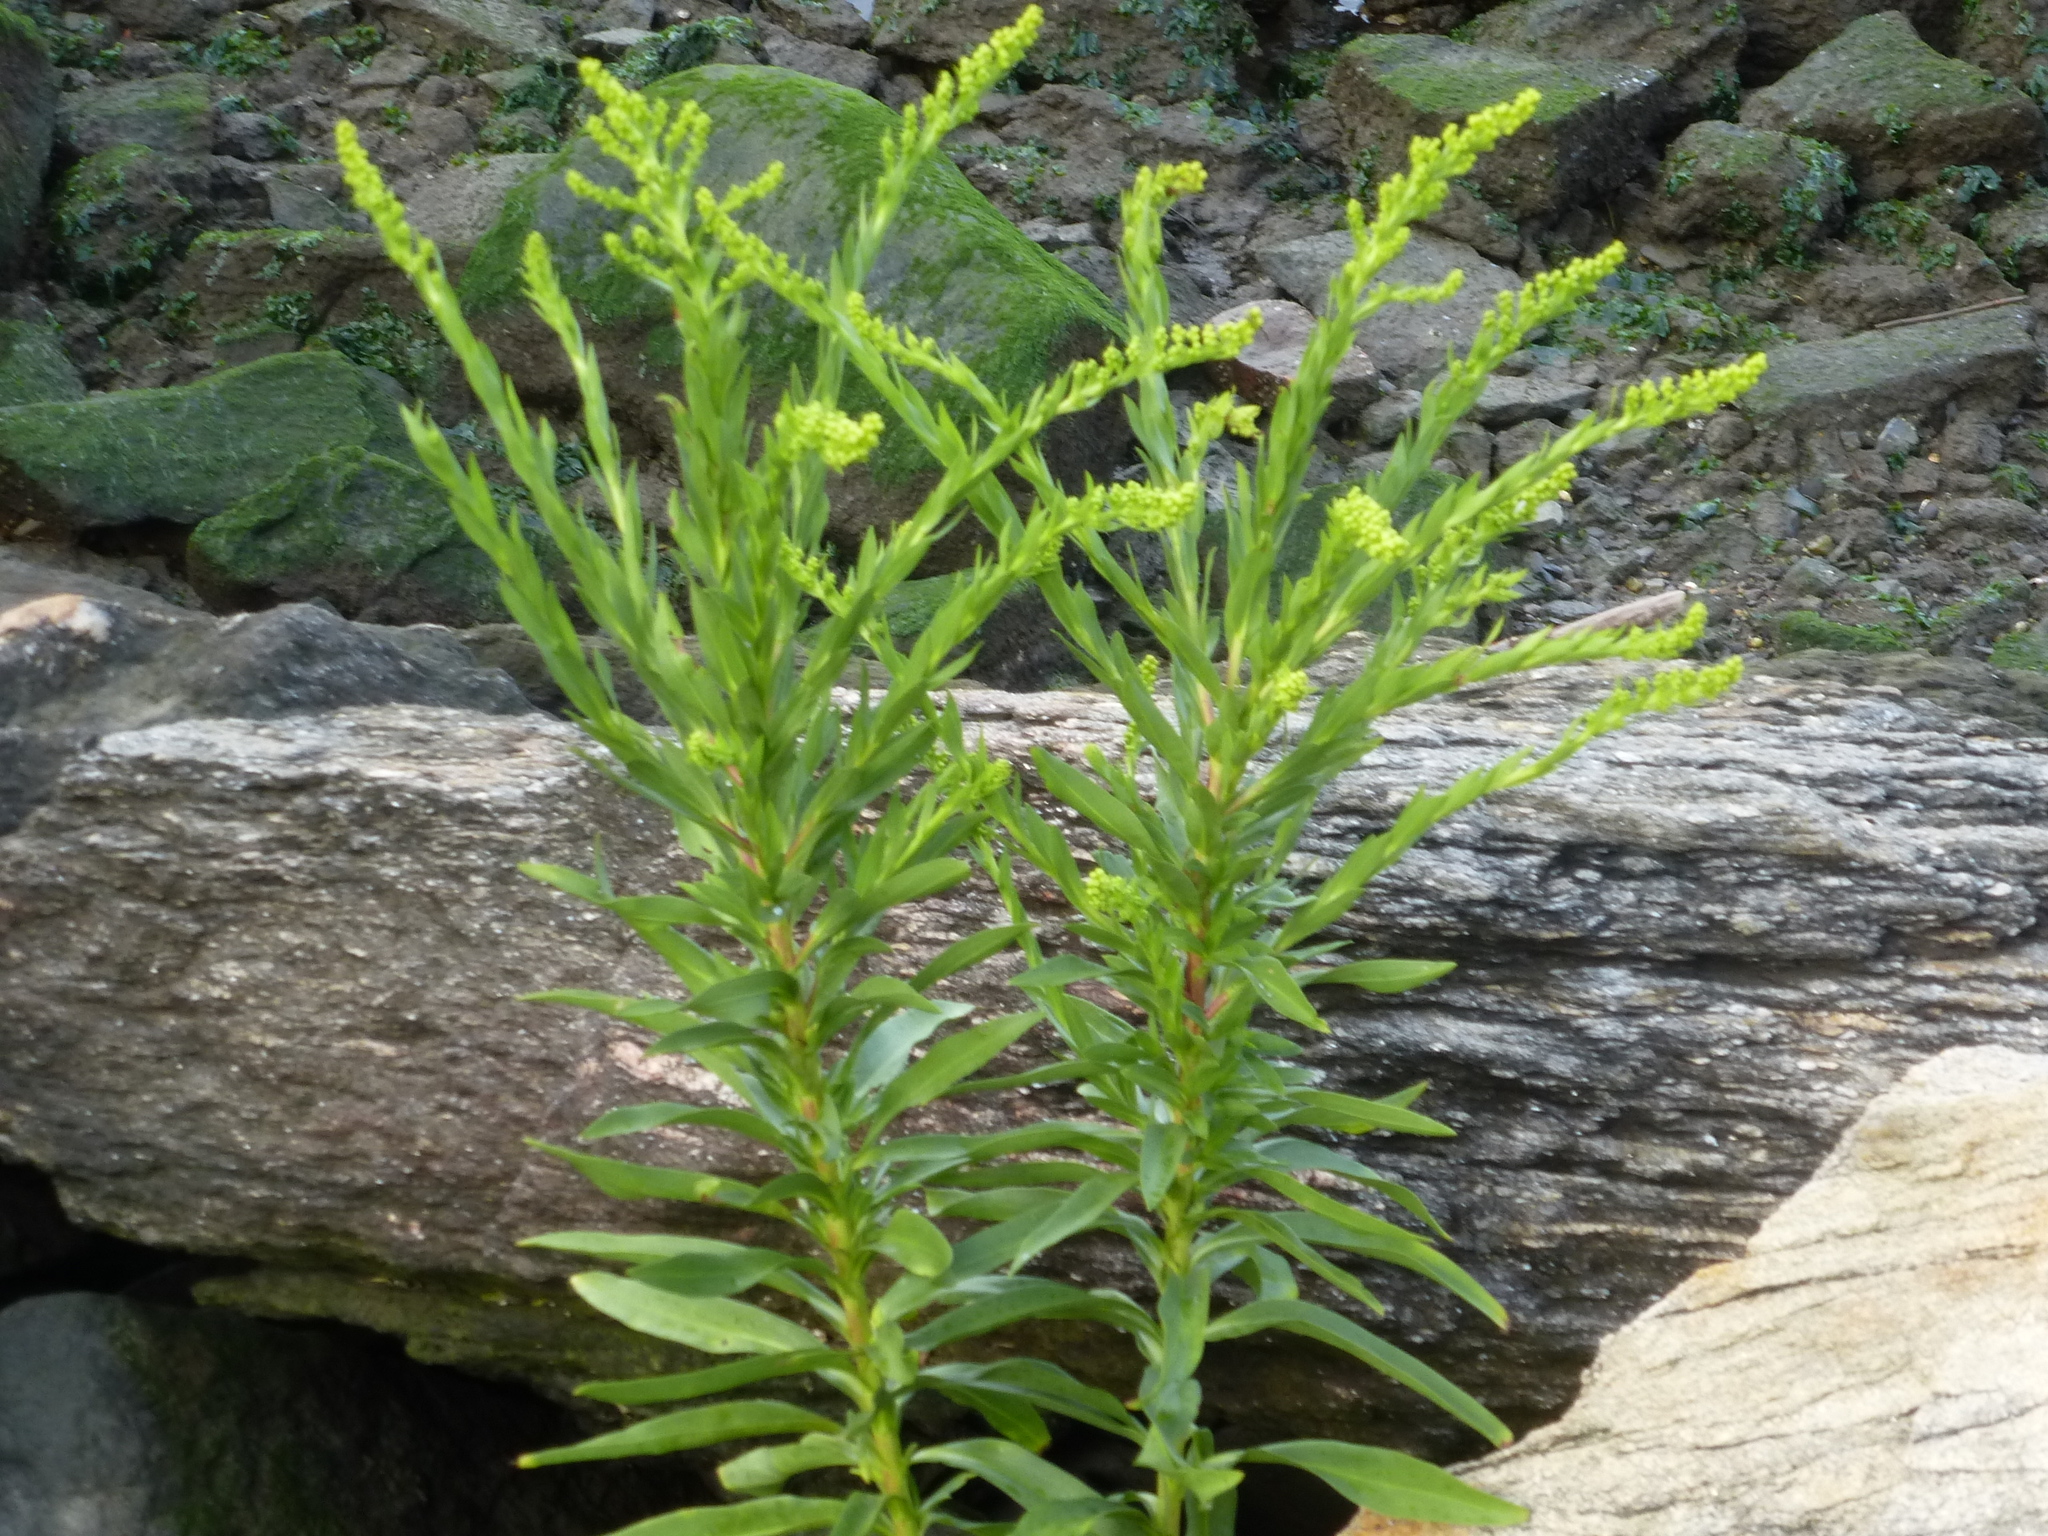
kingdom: Plantae
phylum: Tracheophyta
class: Magnoliopsida
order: Asterales
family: Asteraceae
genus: Solidago
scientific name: Solidago sempervirens
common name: Salt-marsh goldenrod
